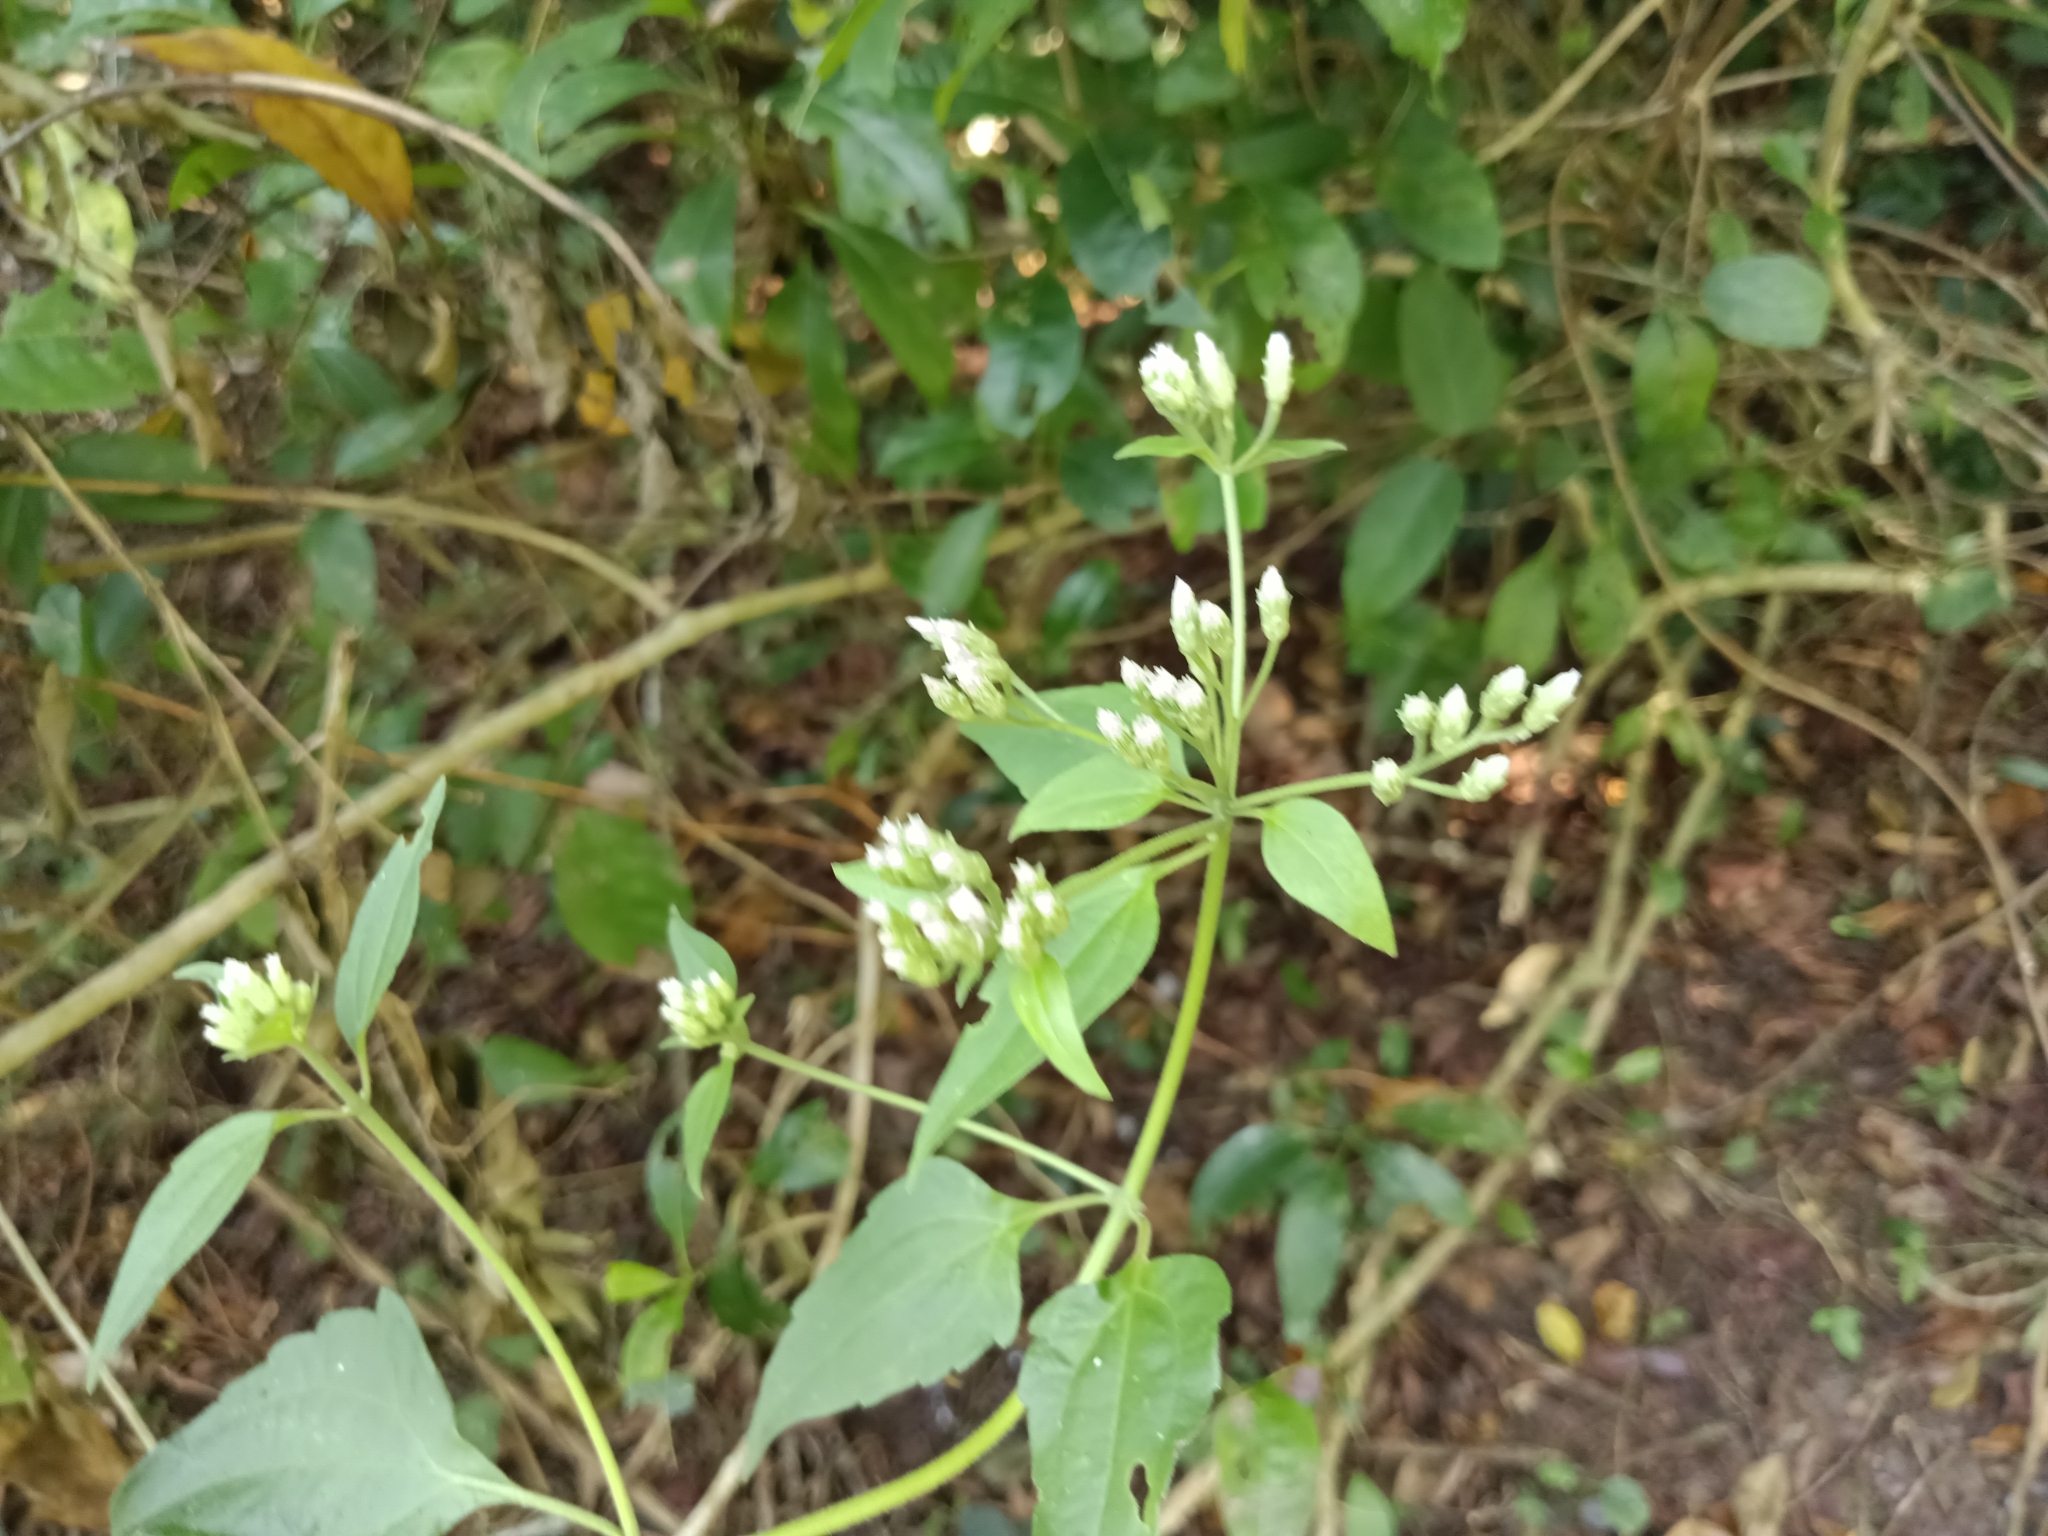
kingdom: Plantae
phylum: Tracheophyta
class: Magnoliopsida
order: Asterales
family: Asteraceae
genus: Chromolaena
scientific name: Chromolaena odorata
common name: Siamweed
